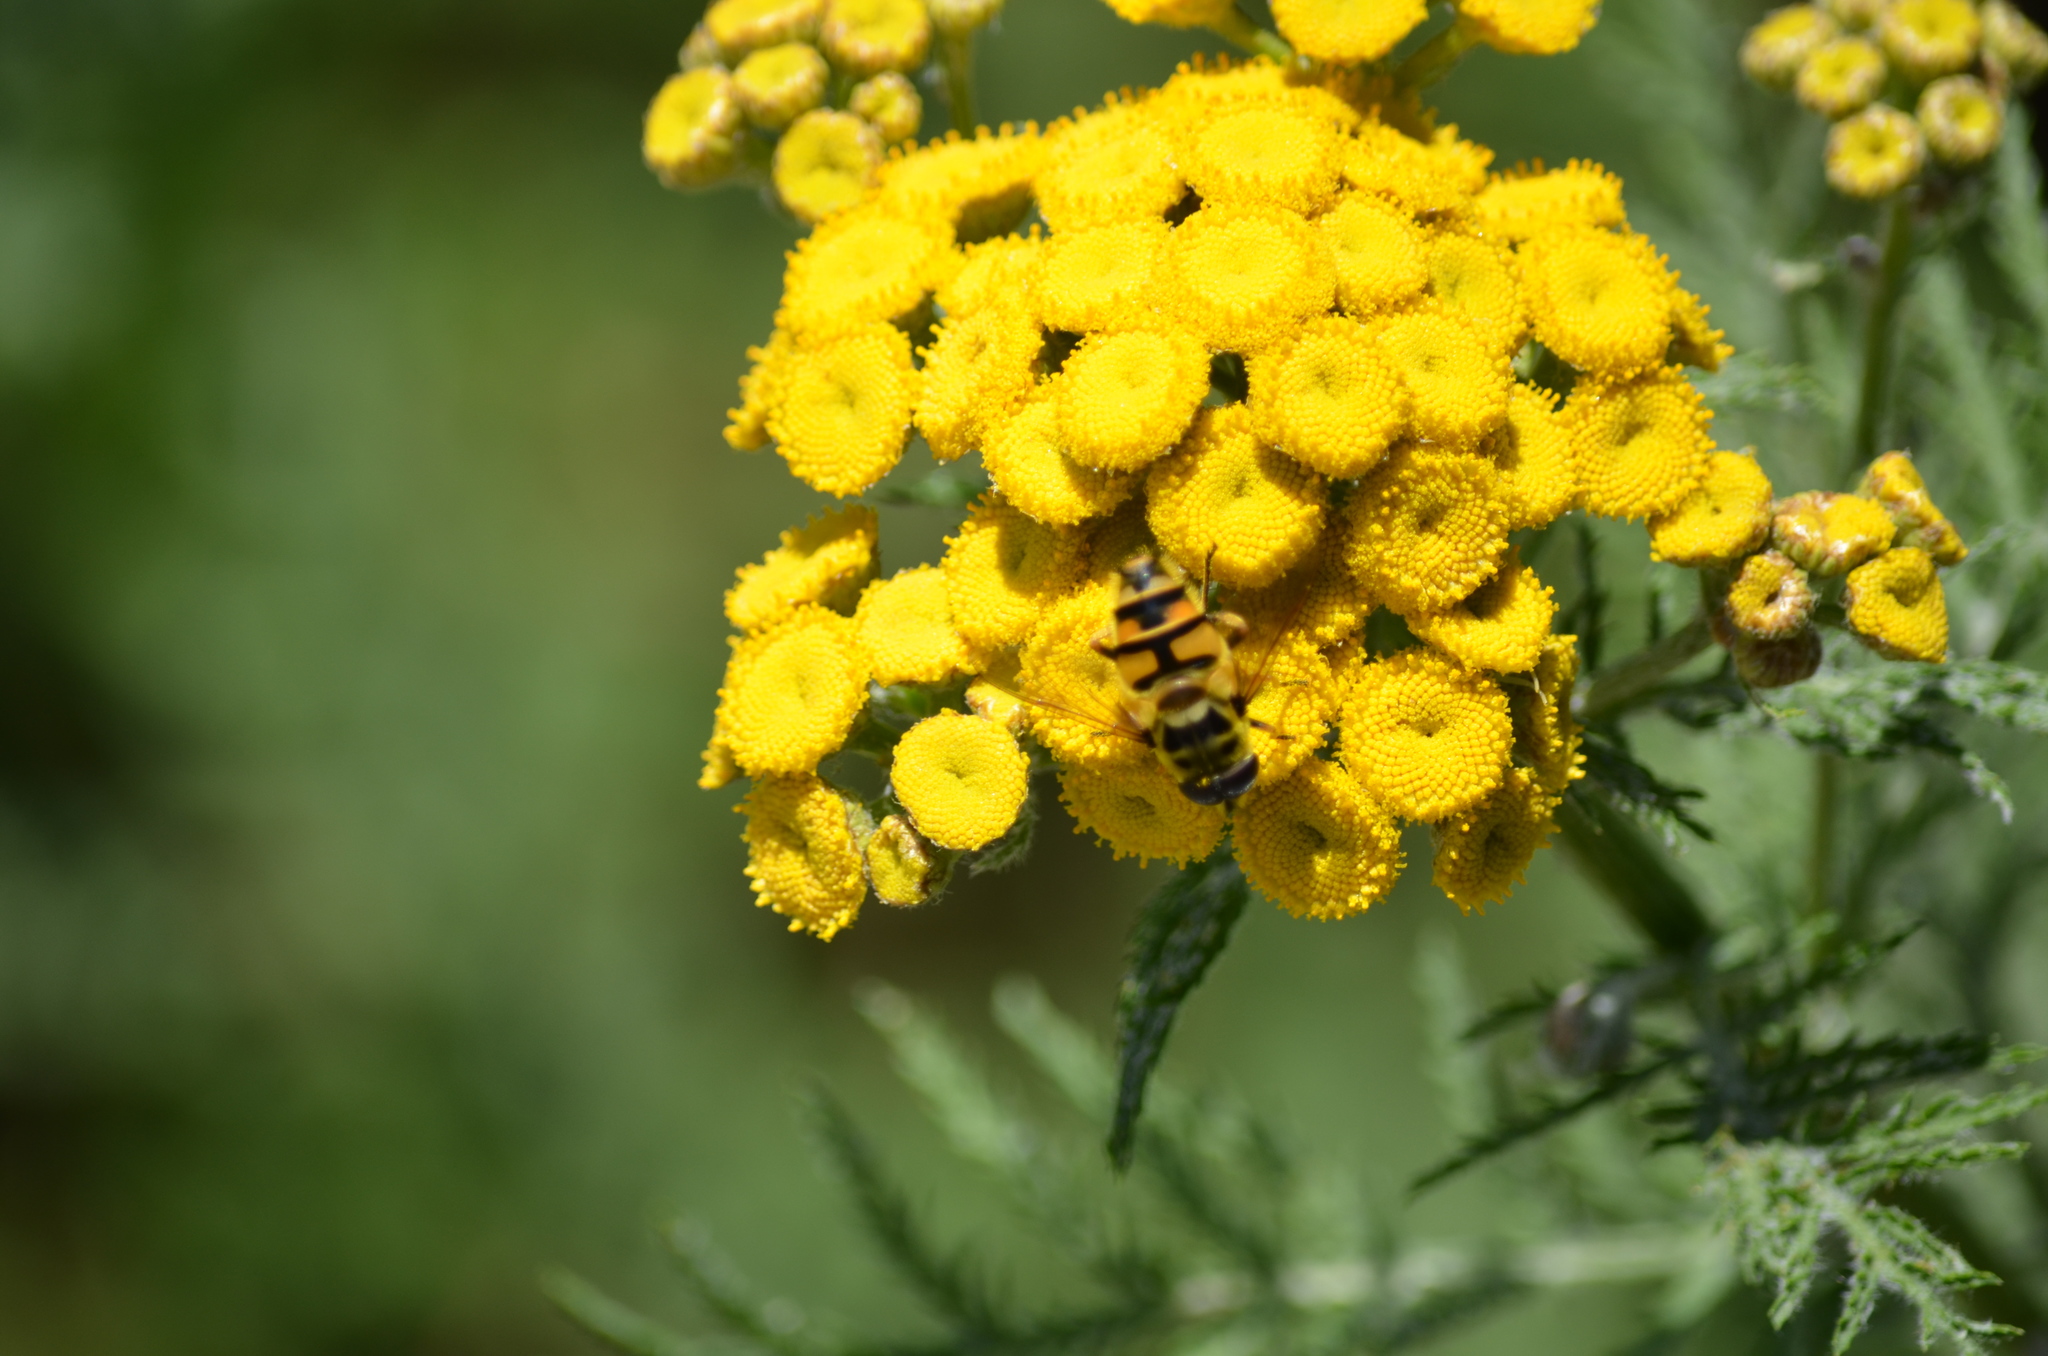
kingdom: Plantae
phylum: Tracheophyta
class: Magnoliopsida
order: Asterales
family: Asteraceae
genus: Tanacetum
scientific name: Tanacetum vulgare
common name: Common tansy
